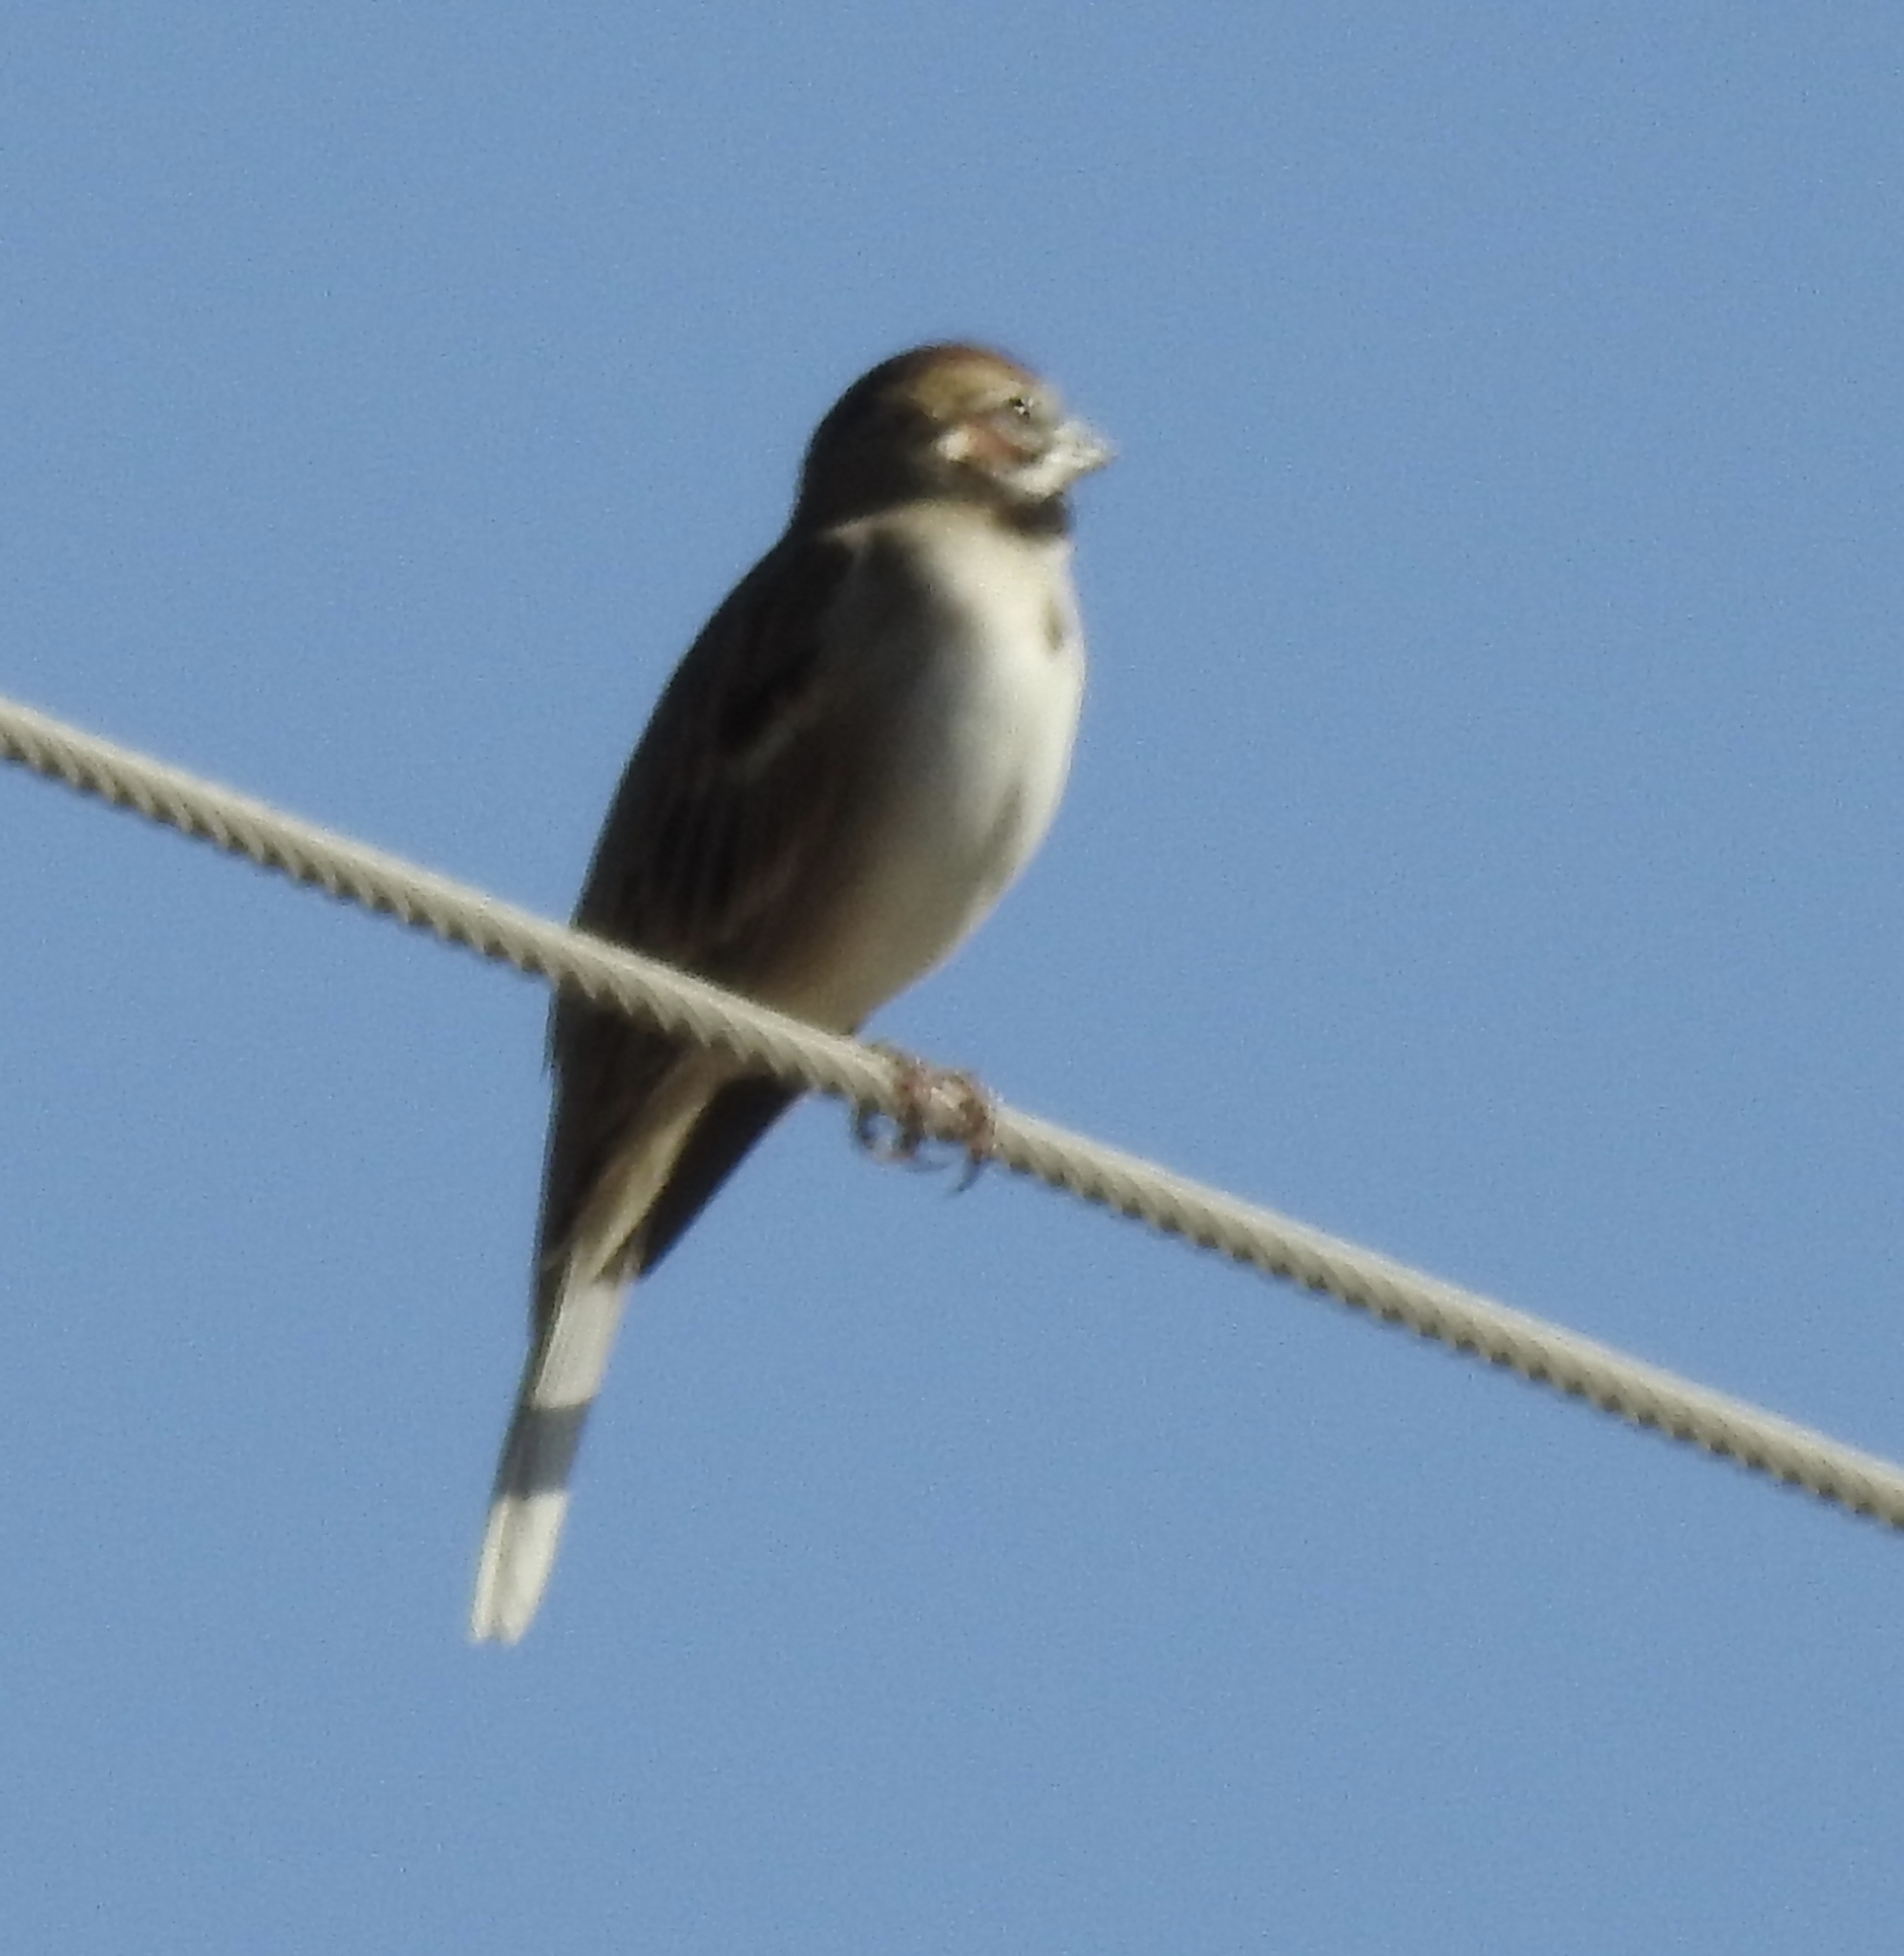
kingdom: Animalia
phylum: Chordata
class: Aves
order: Passeriformes
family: Passerellidae
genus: Chondestes
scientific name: Chondestes grammacus
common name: Lark sparrow
